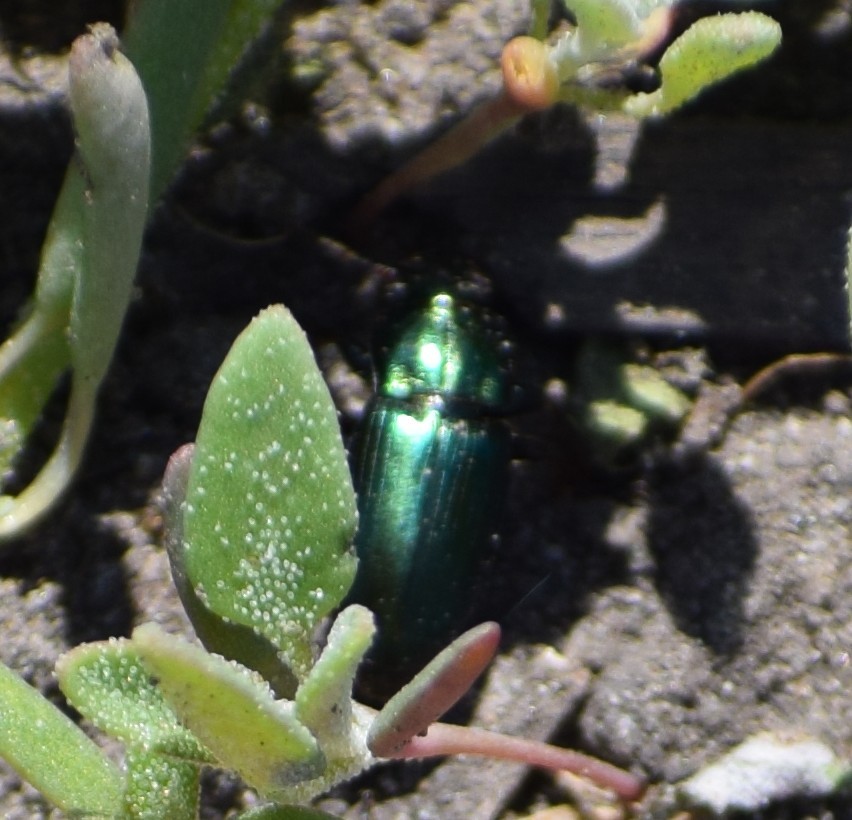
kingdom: Animalia
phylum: Arthropoda
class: Insecta
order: Coleoptera
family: Carabidae
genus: Harpalus
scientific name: Harpalus
